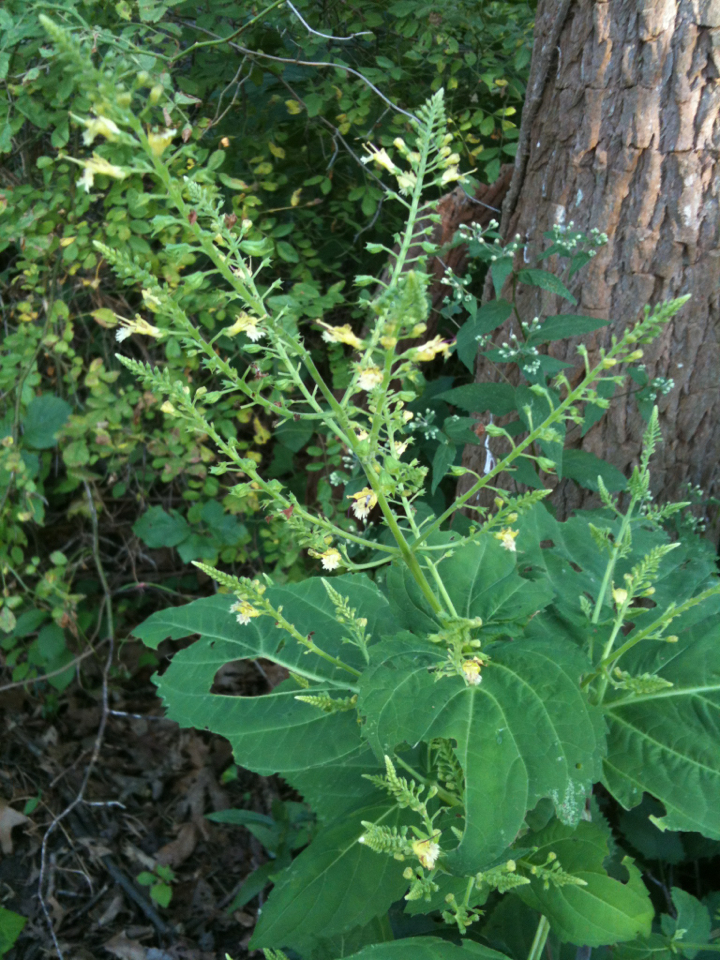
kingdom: Plantae
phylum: Tracheophyta
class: Magnoliopsida
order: Lamiales
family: Lamiaceae
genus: Collinsonia
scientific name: Collinsonia canadensis
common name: Northern horsebalm
